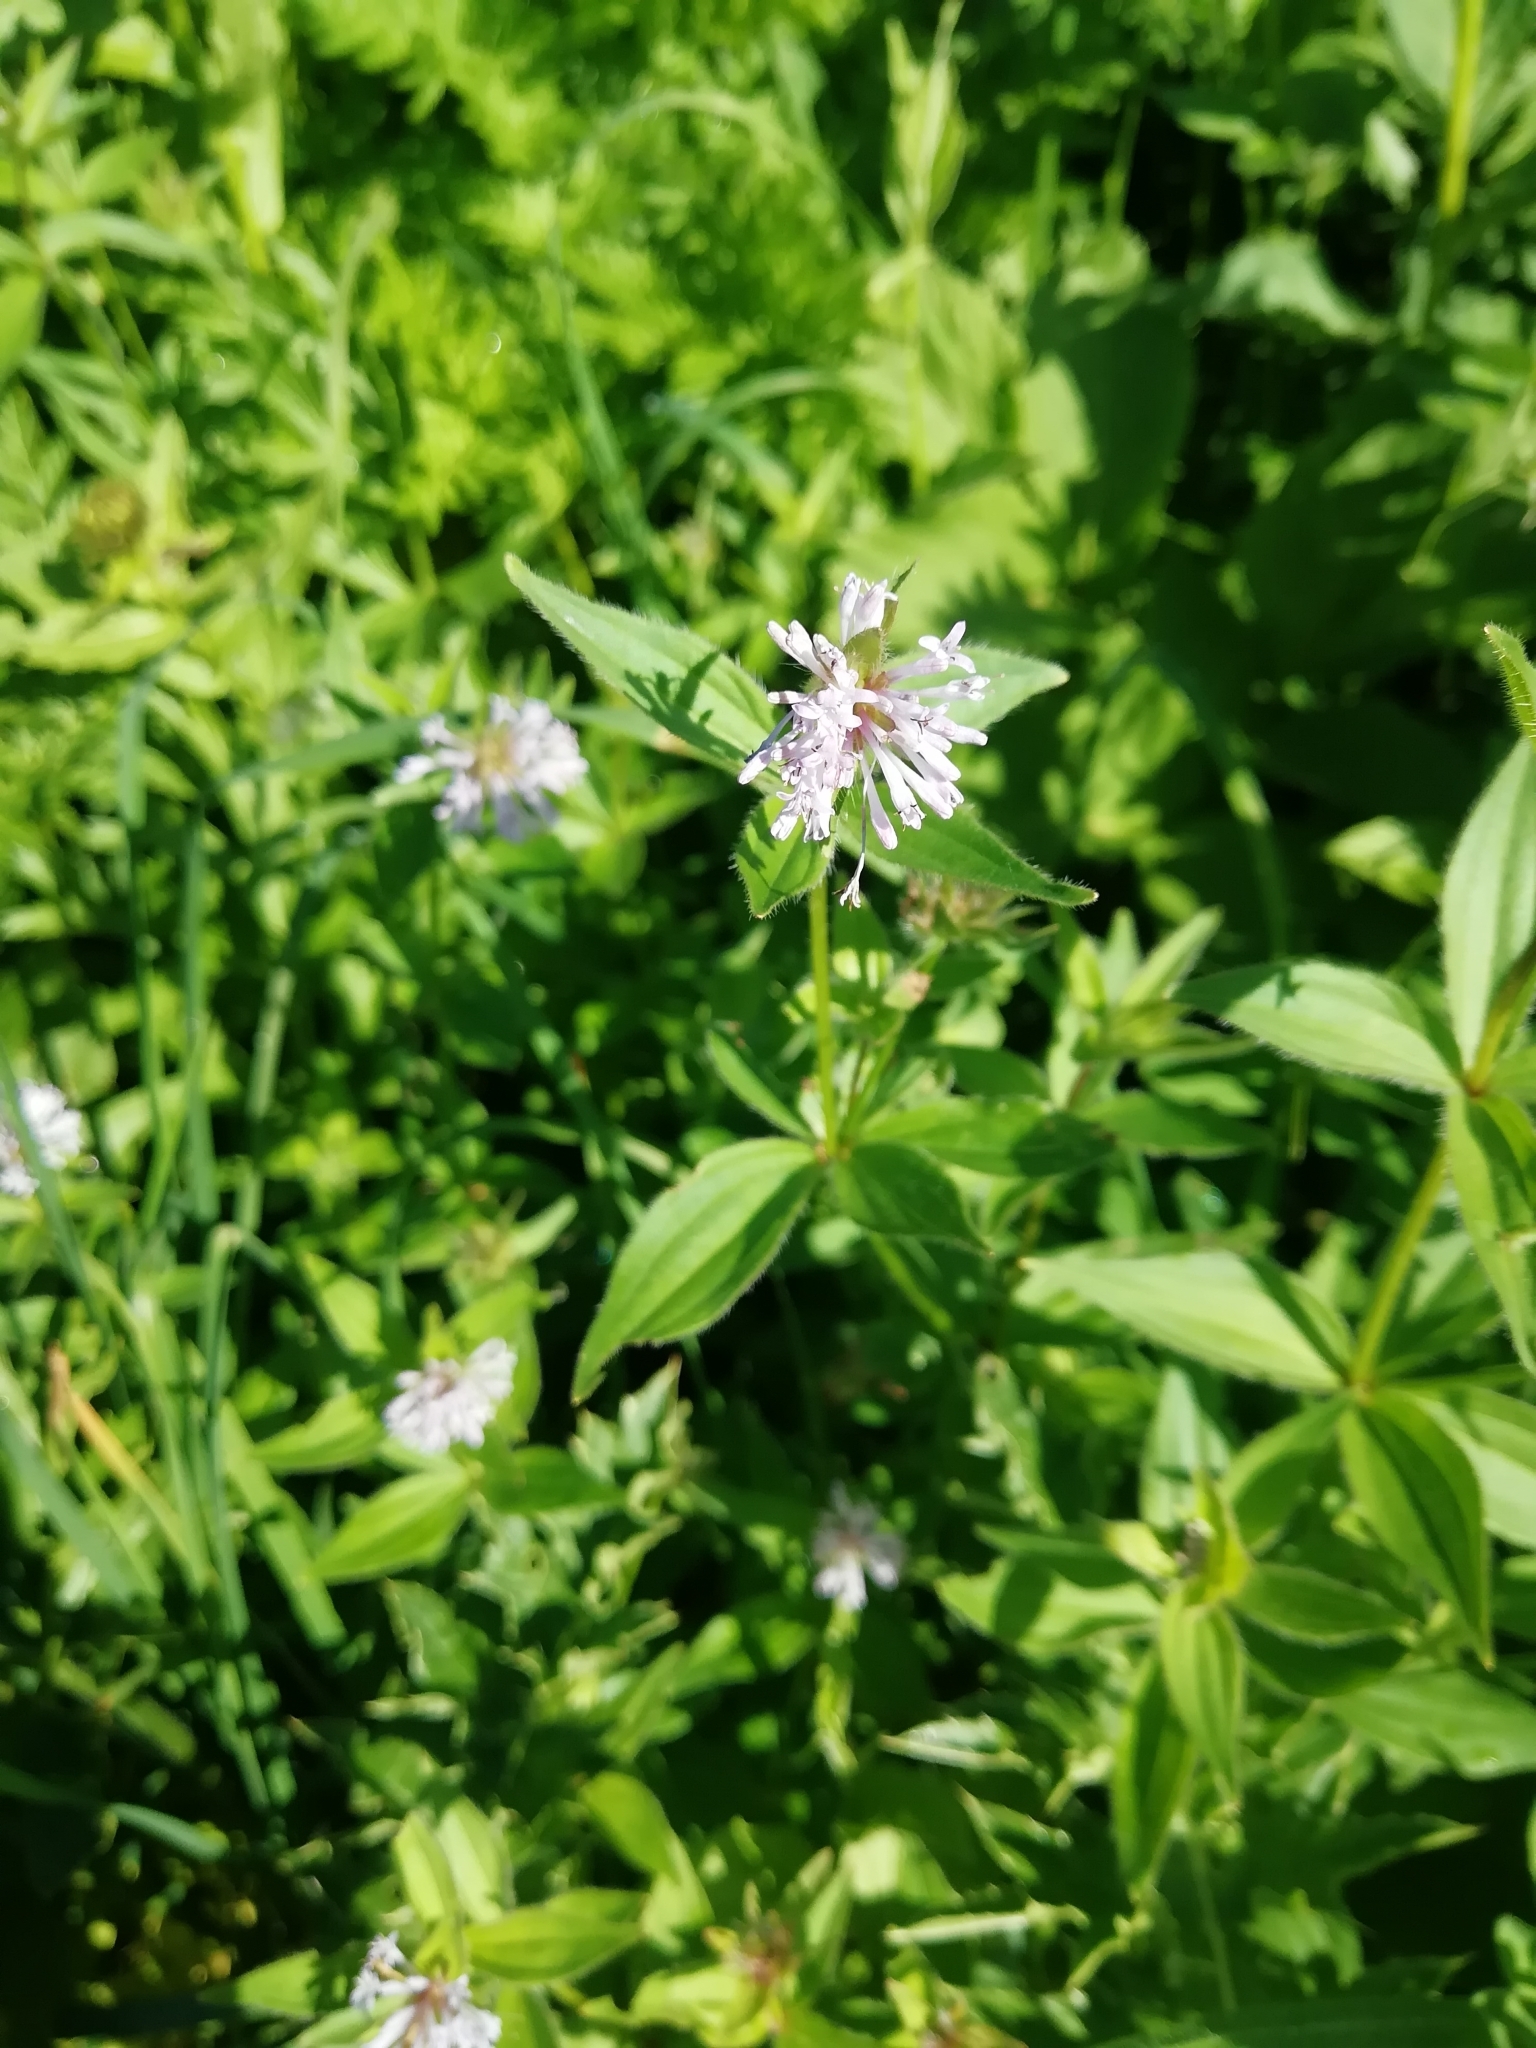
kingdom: Plantae
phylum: Tracheophyta
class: Magnoliopsida
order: Gentianales
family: Rubiaceae
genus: Asperula
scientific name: Asperula taurina
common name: Pink woodruff
